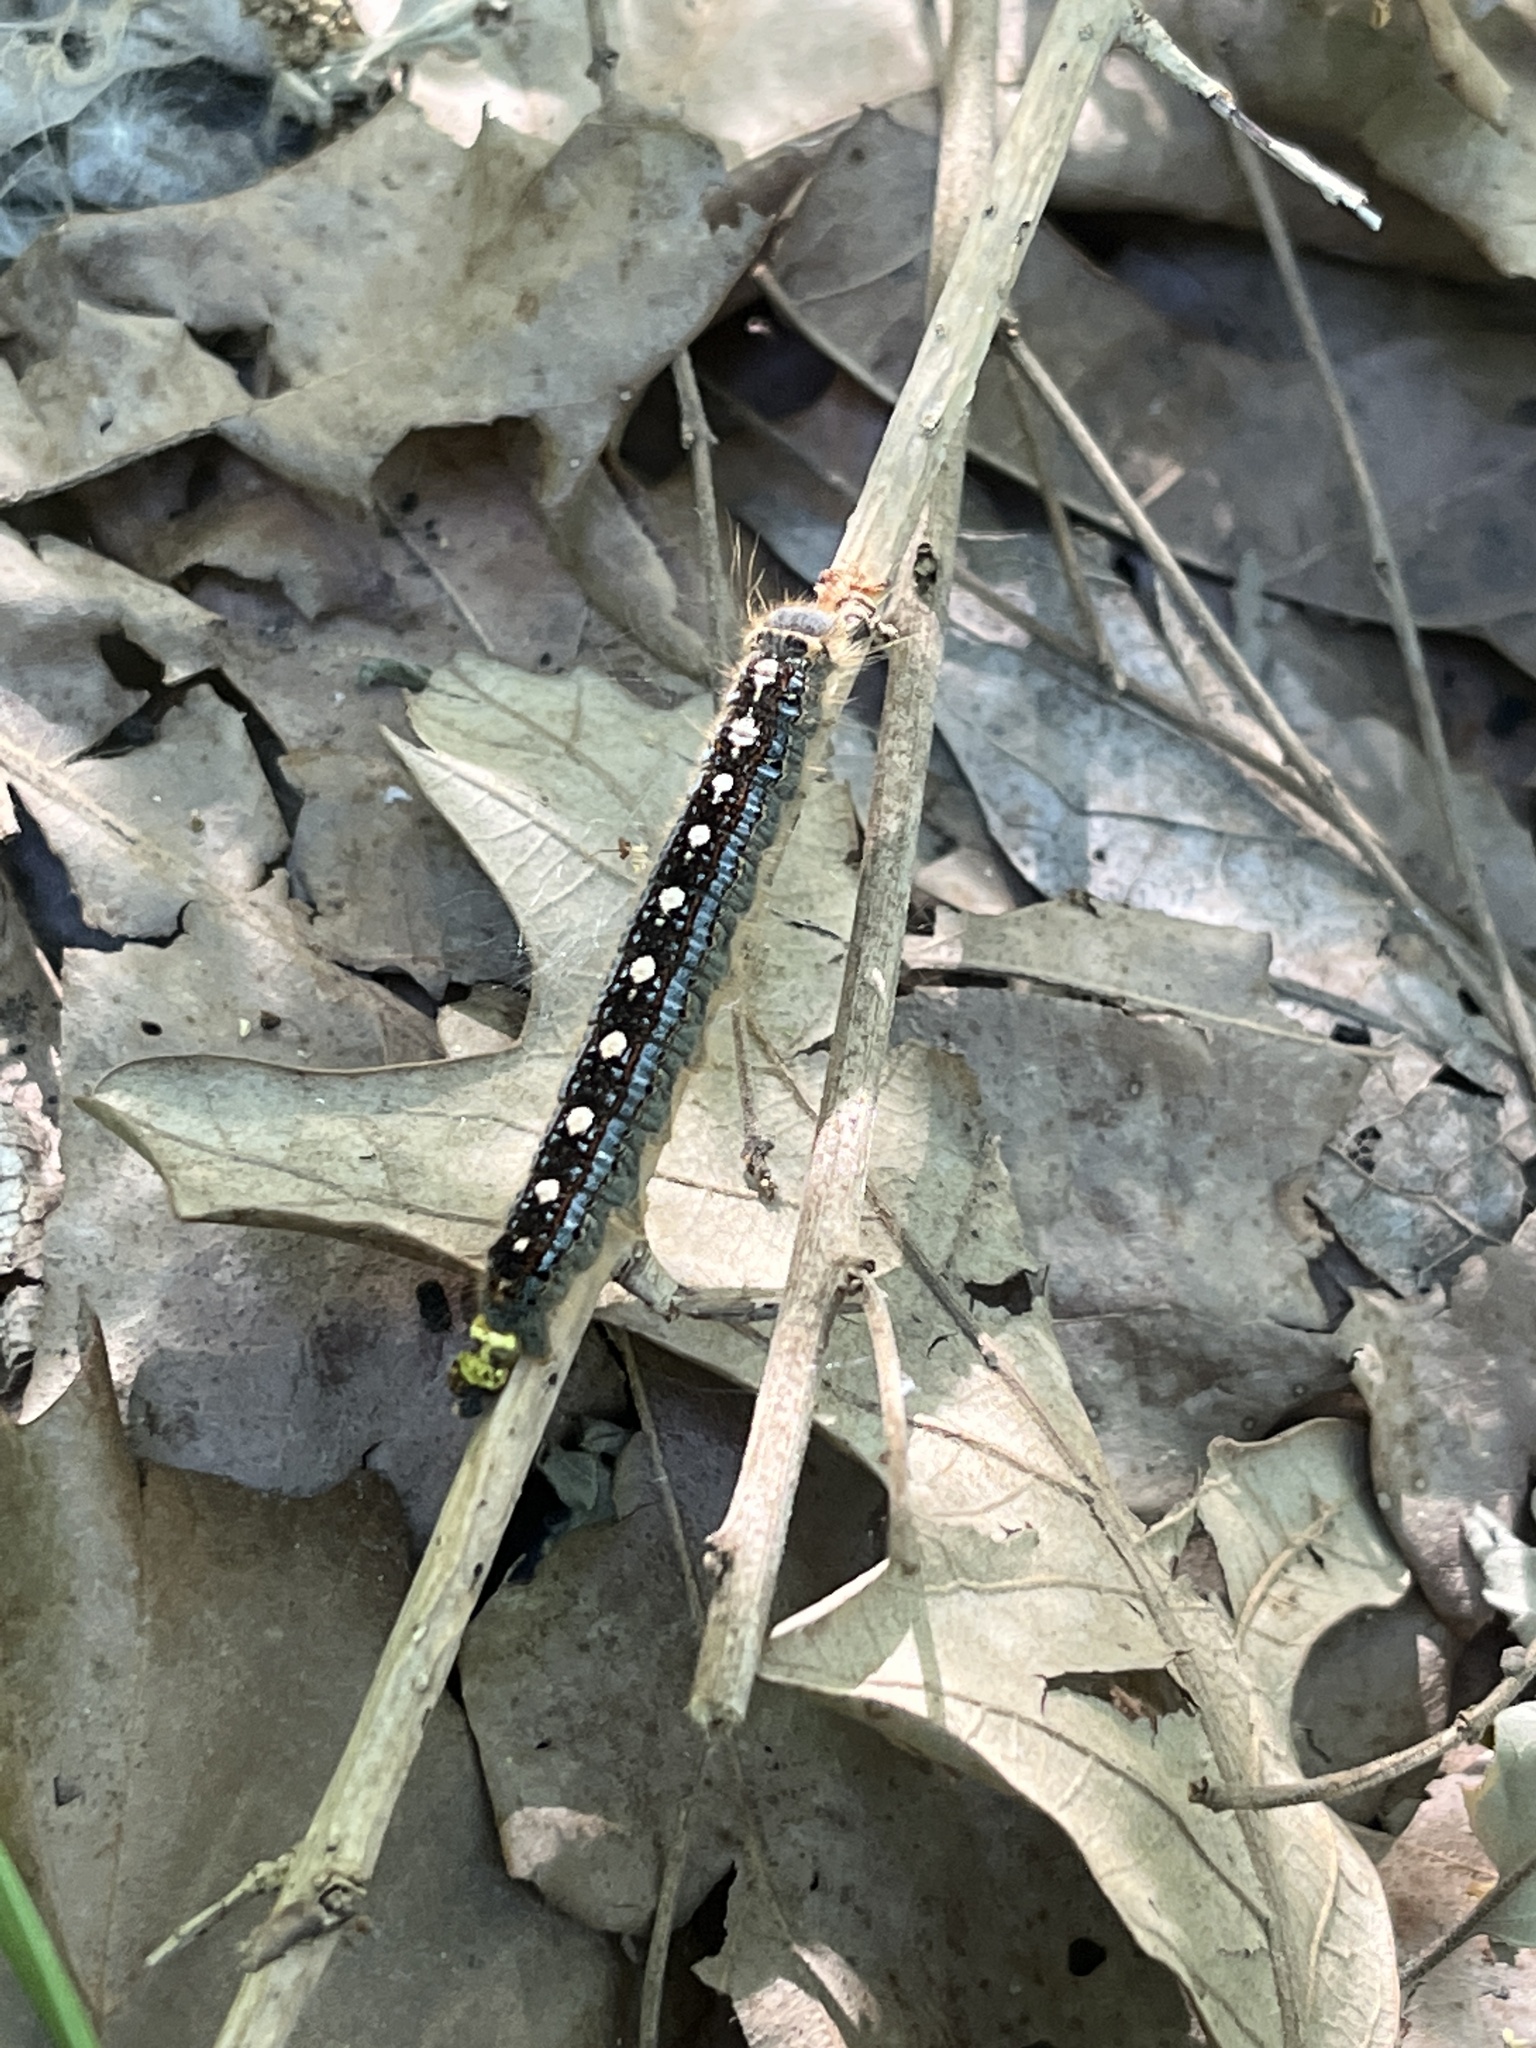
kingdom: Animalia
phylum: Arthropoda
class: Insecta
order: Lepidoptera
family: Lasiocampidae
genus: Malacosoma
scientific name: Malacosoma disstria
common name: Forest tent caterpillar
